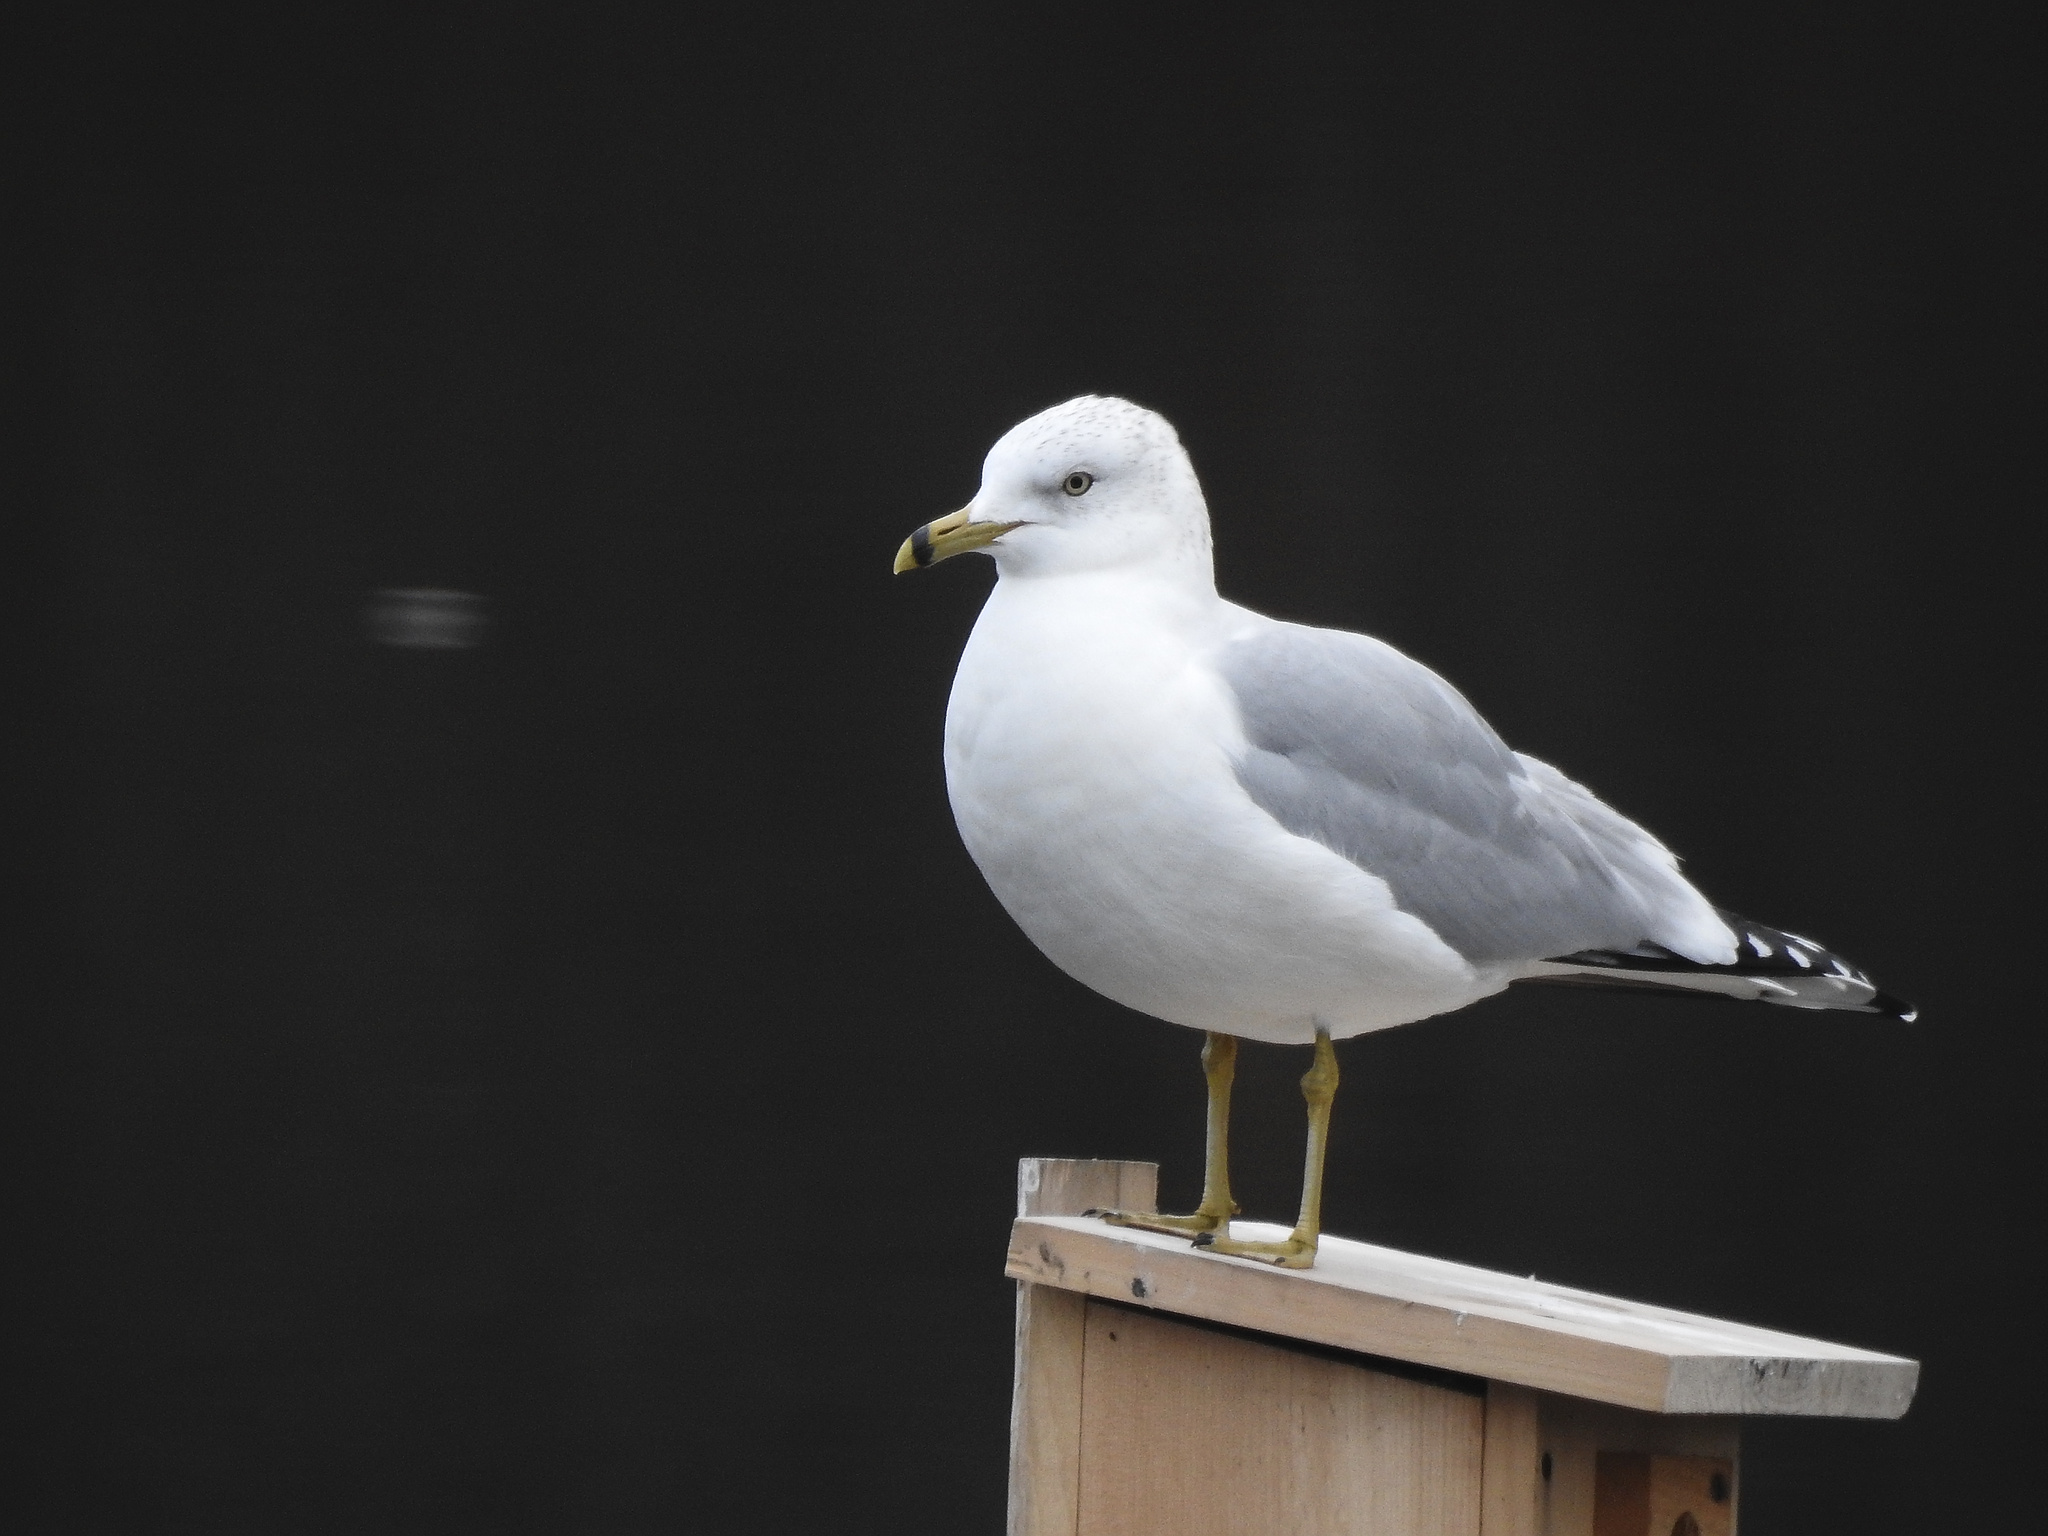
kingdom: Animalia
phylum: Chordata
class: Aves
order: Charadriiformes
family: Laridae
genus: Larus
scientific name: Larus delawarensis
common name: Ring-billed gull
